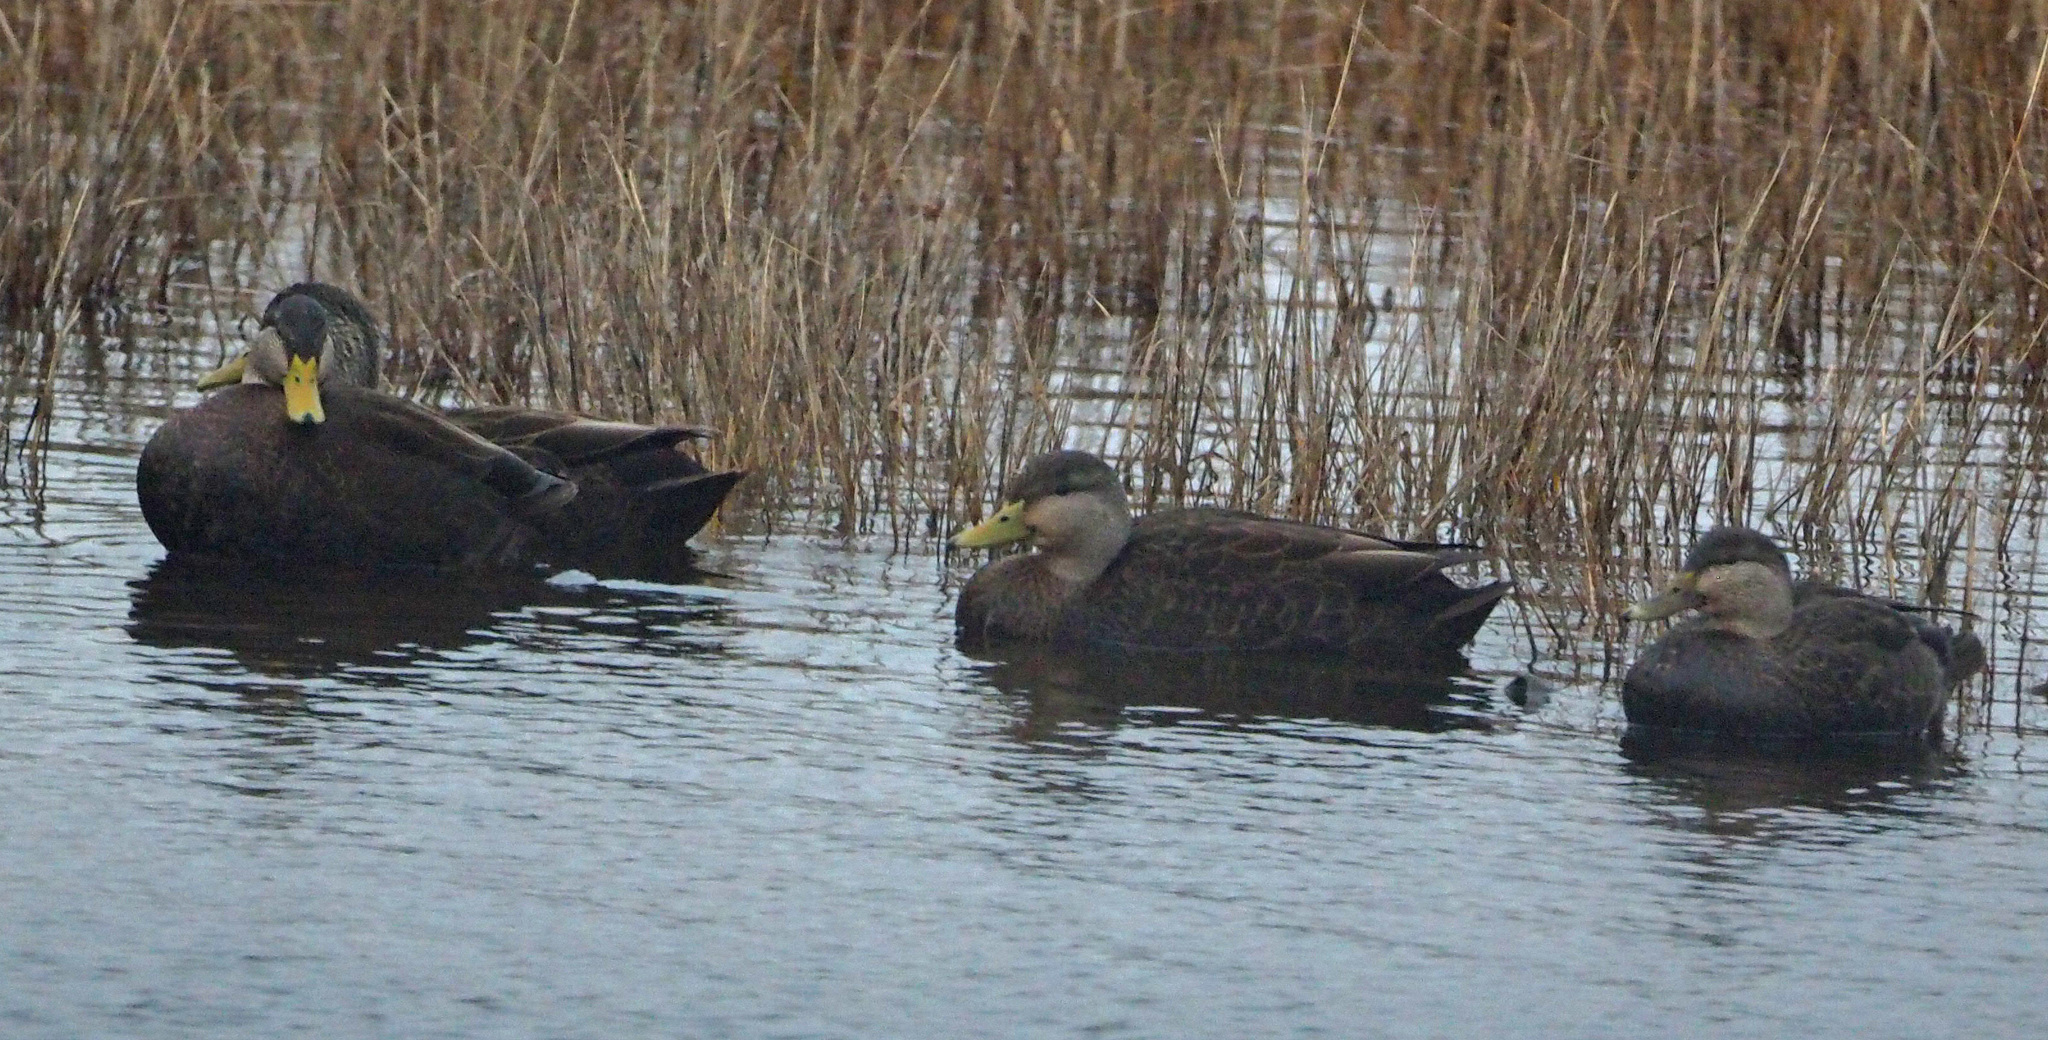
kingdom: Animalia
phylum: Chordata
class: Aves
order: Anseriformes
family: Anatidae
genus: Anas
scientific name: Anas rubripes
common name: American black duck
